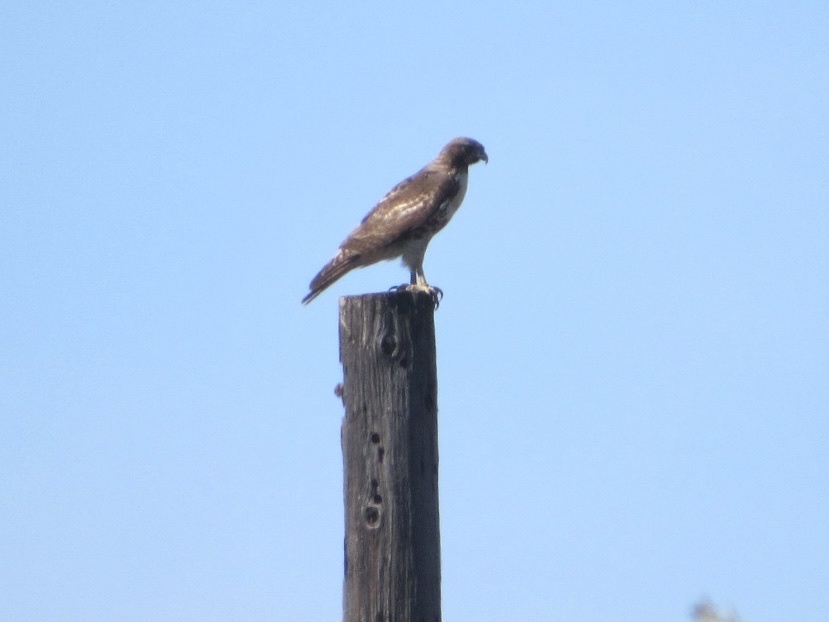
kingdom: Animalia
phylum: Chordata
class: Aves
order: Accipitriformes
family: Accipitridae
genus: Buteo
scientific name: Buteo jamaicensis
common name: Red-tailed hawk
